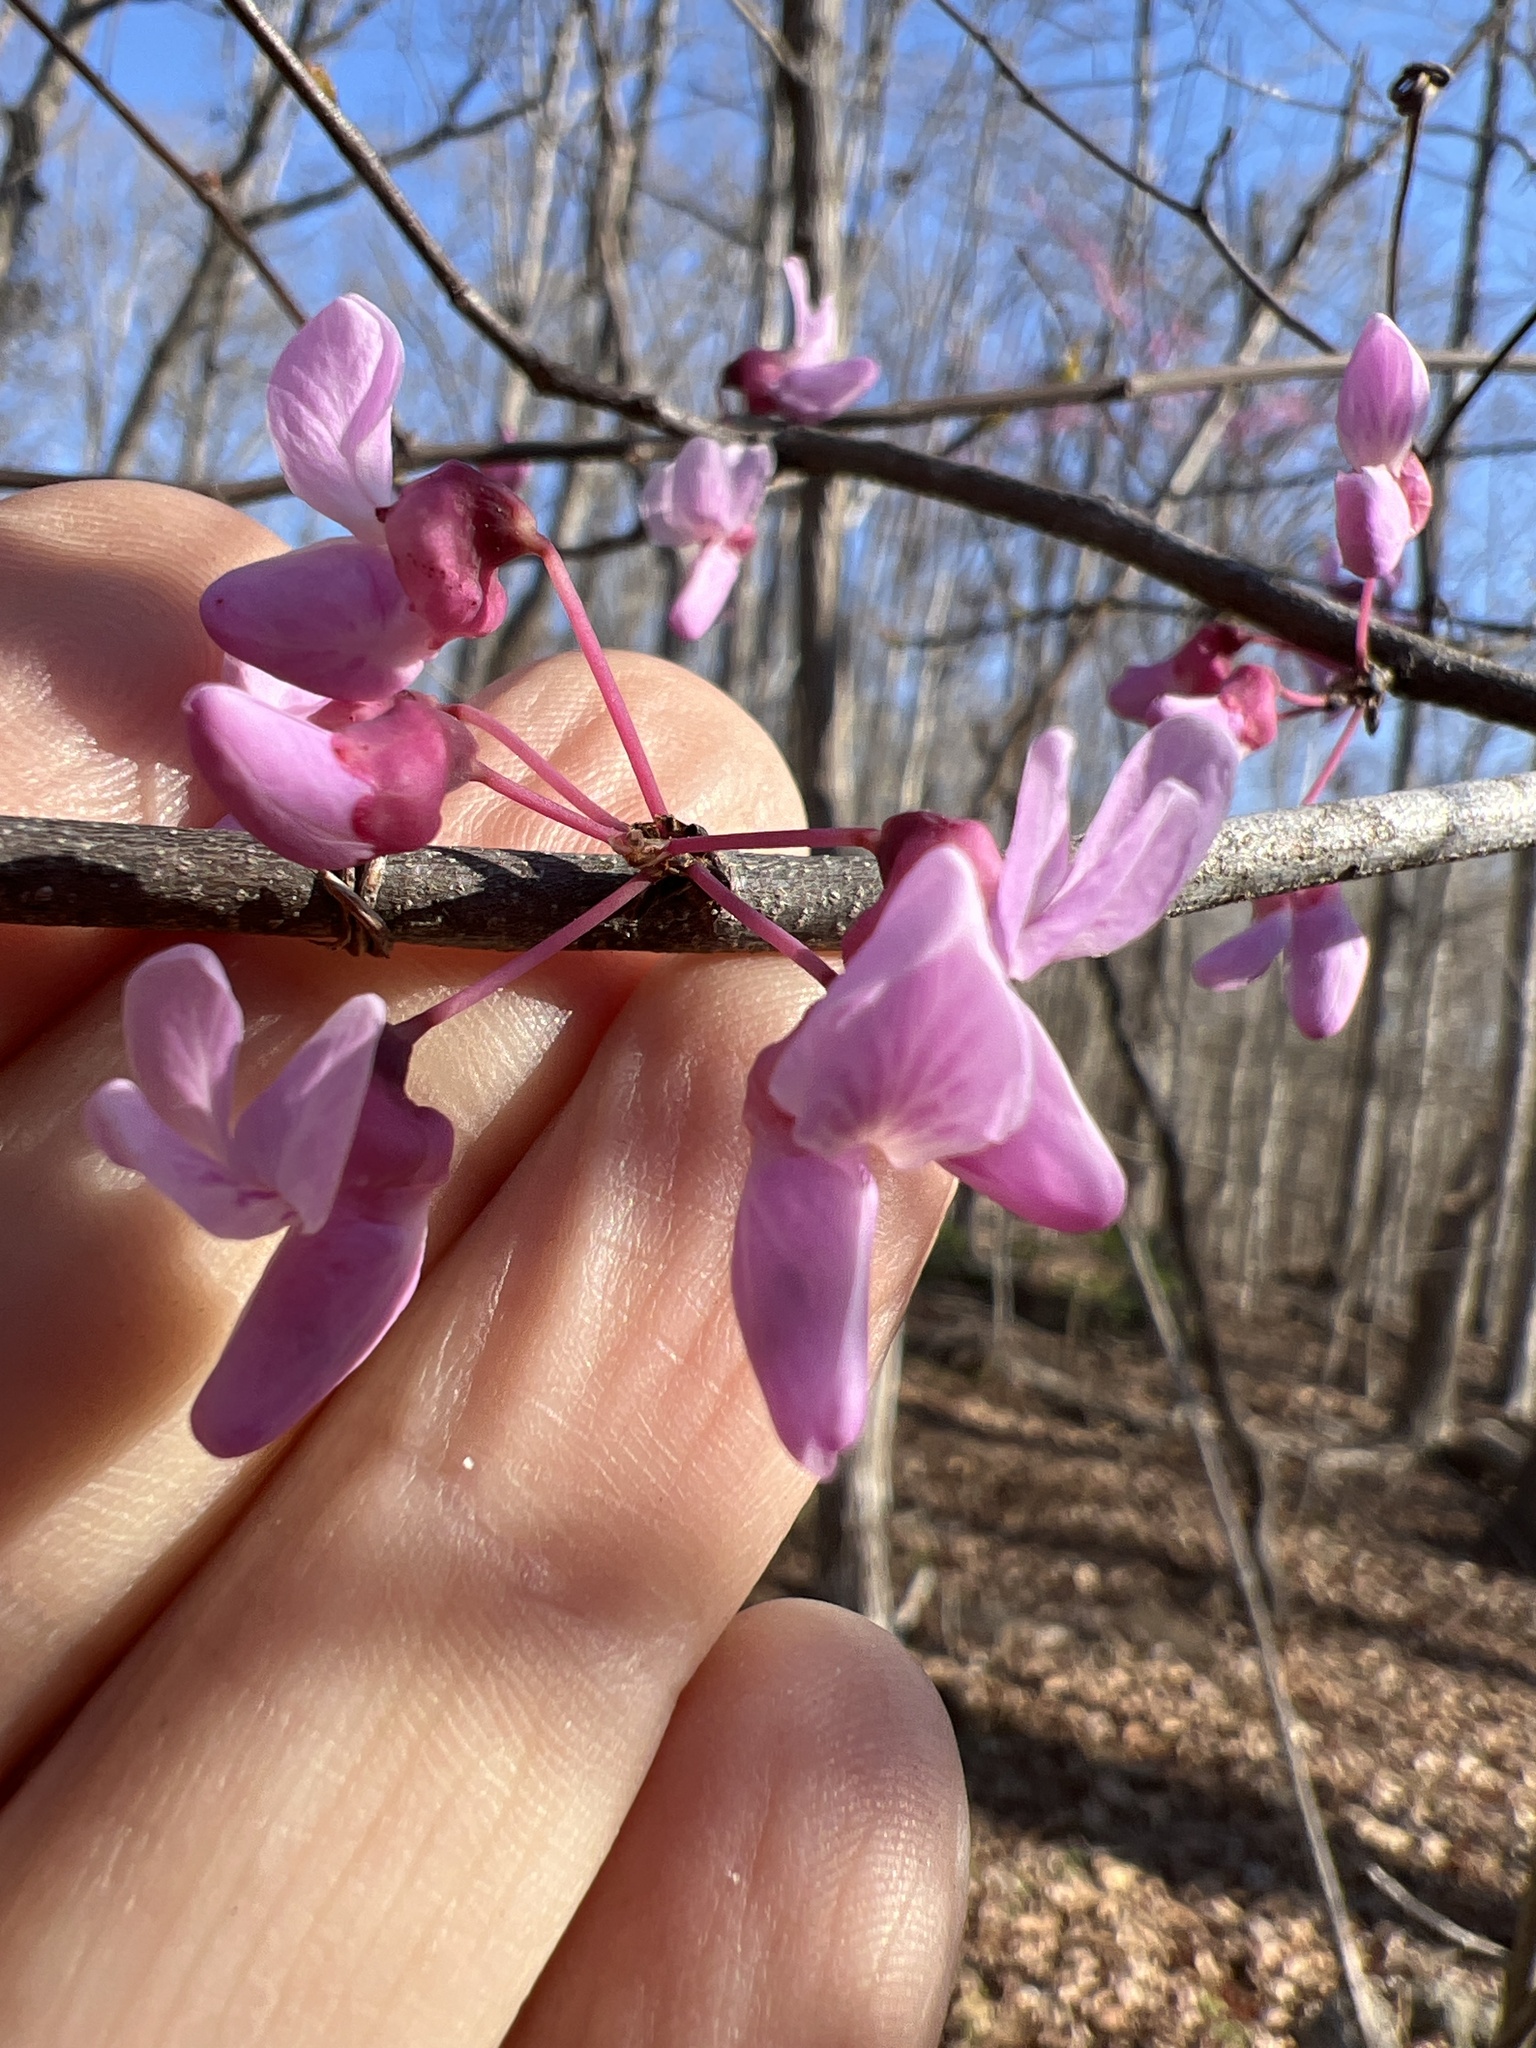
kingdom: Plantae
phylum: Tracheophyta
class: Magnoliopsida
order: Fabales
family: Fabaceae
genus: Cercis
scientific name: Cercis canadensis
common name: Eastern redbud
